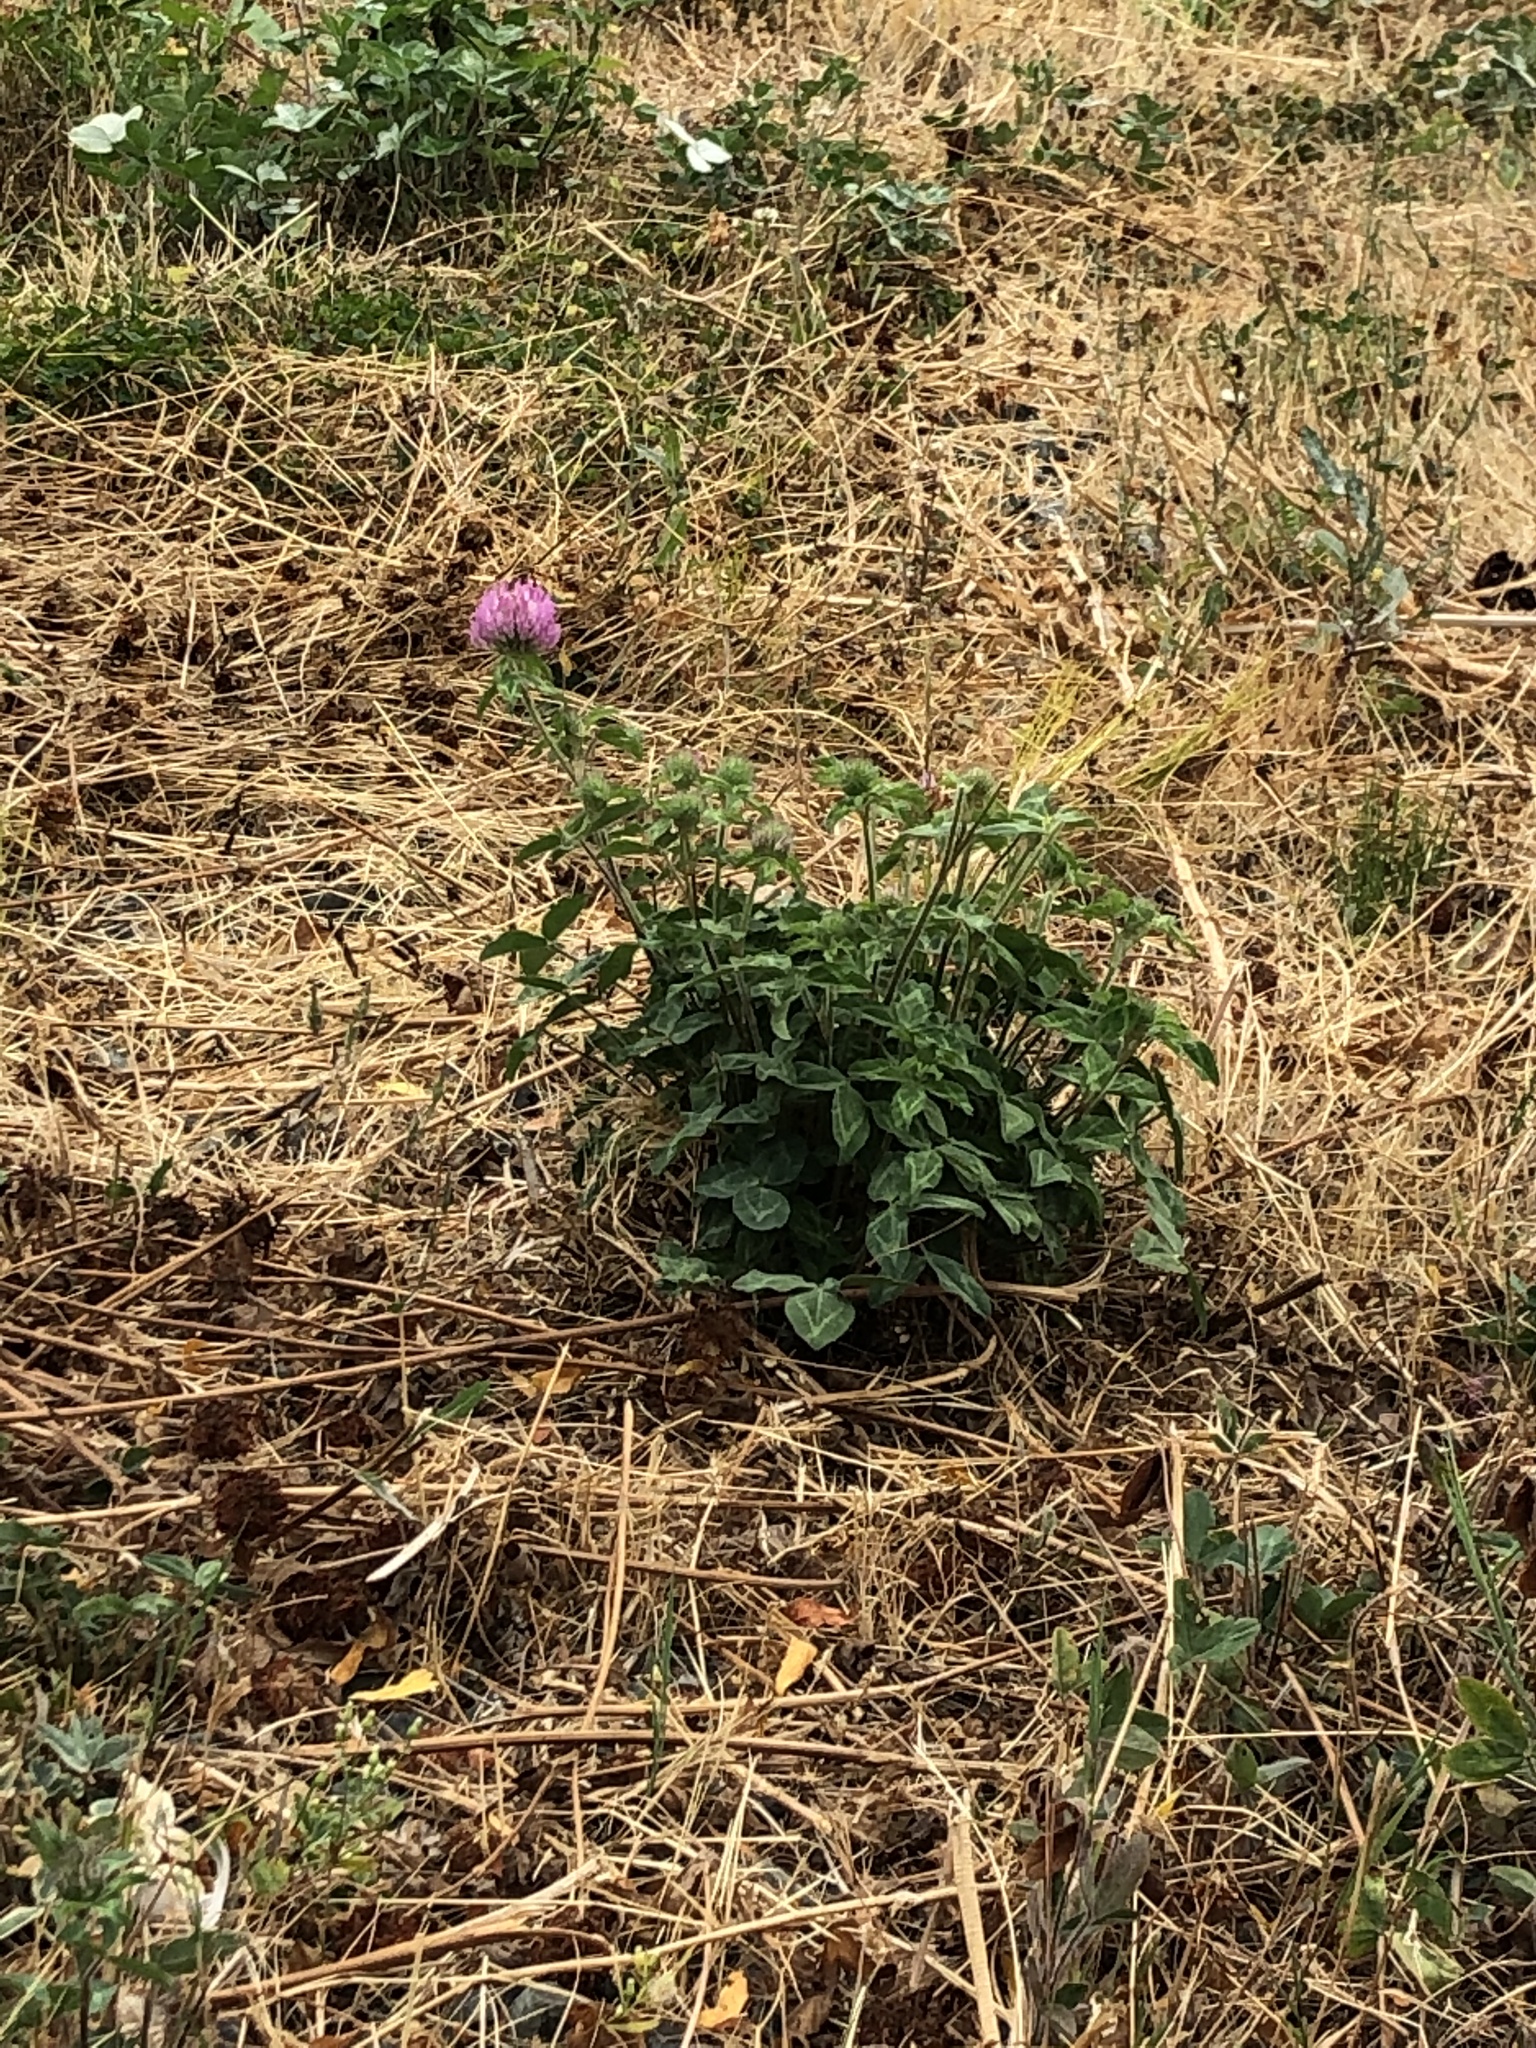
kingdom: Plantae
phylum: Tracheophyta
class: Magnoliopsida
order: Fabales
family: Fabaceae
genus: Trifolium
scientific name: Trifolium pratense
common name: Red clover
